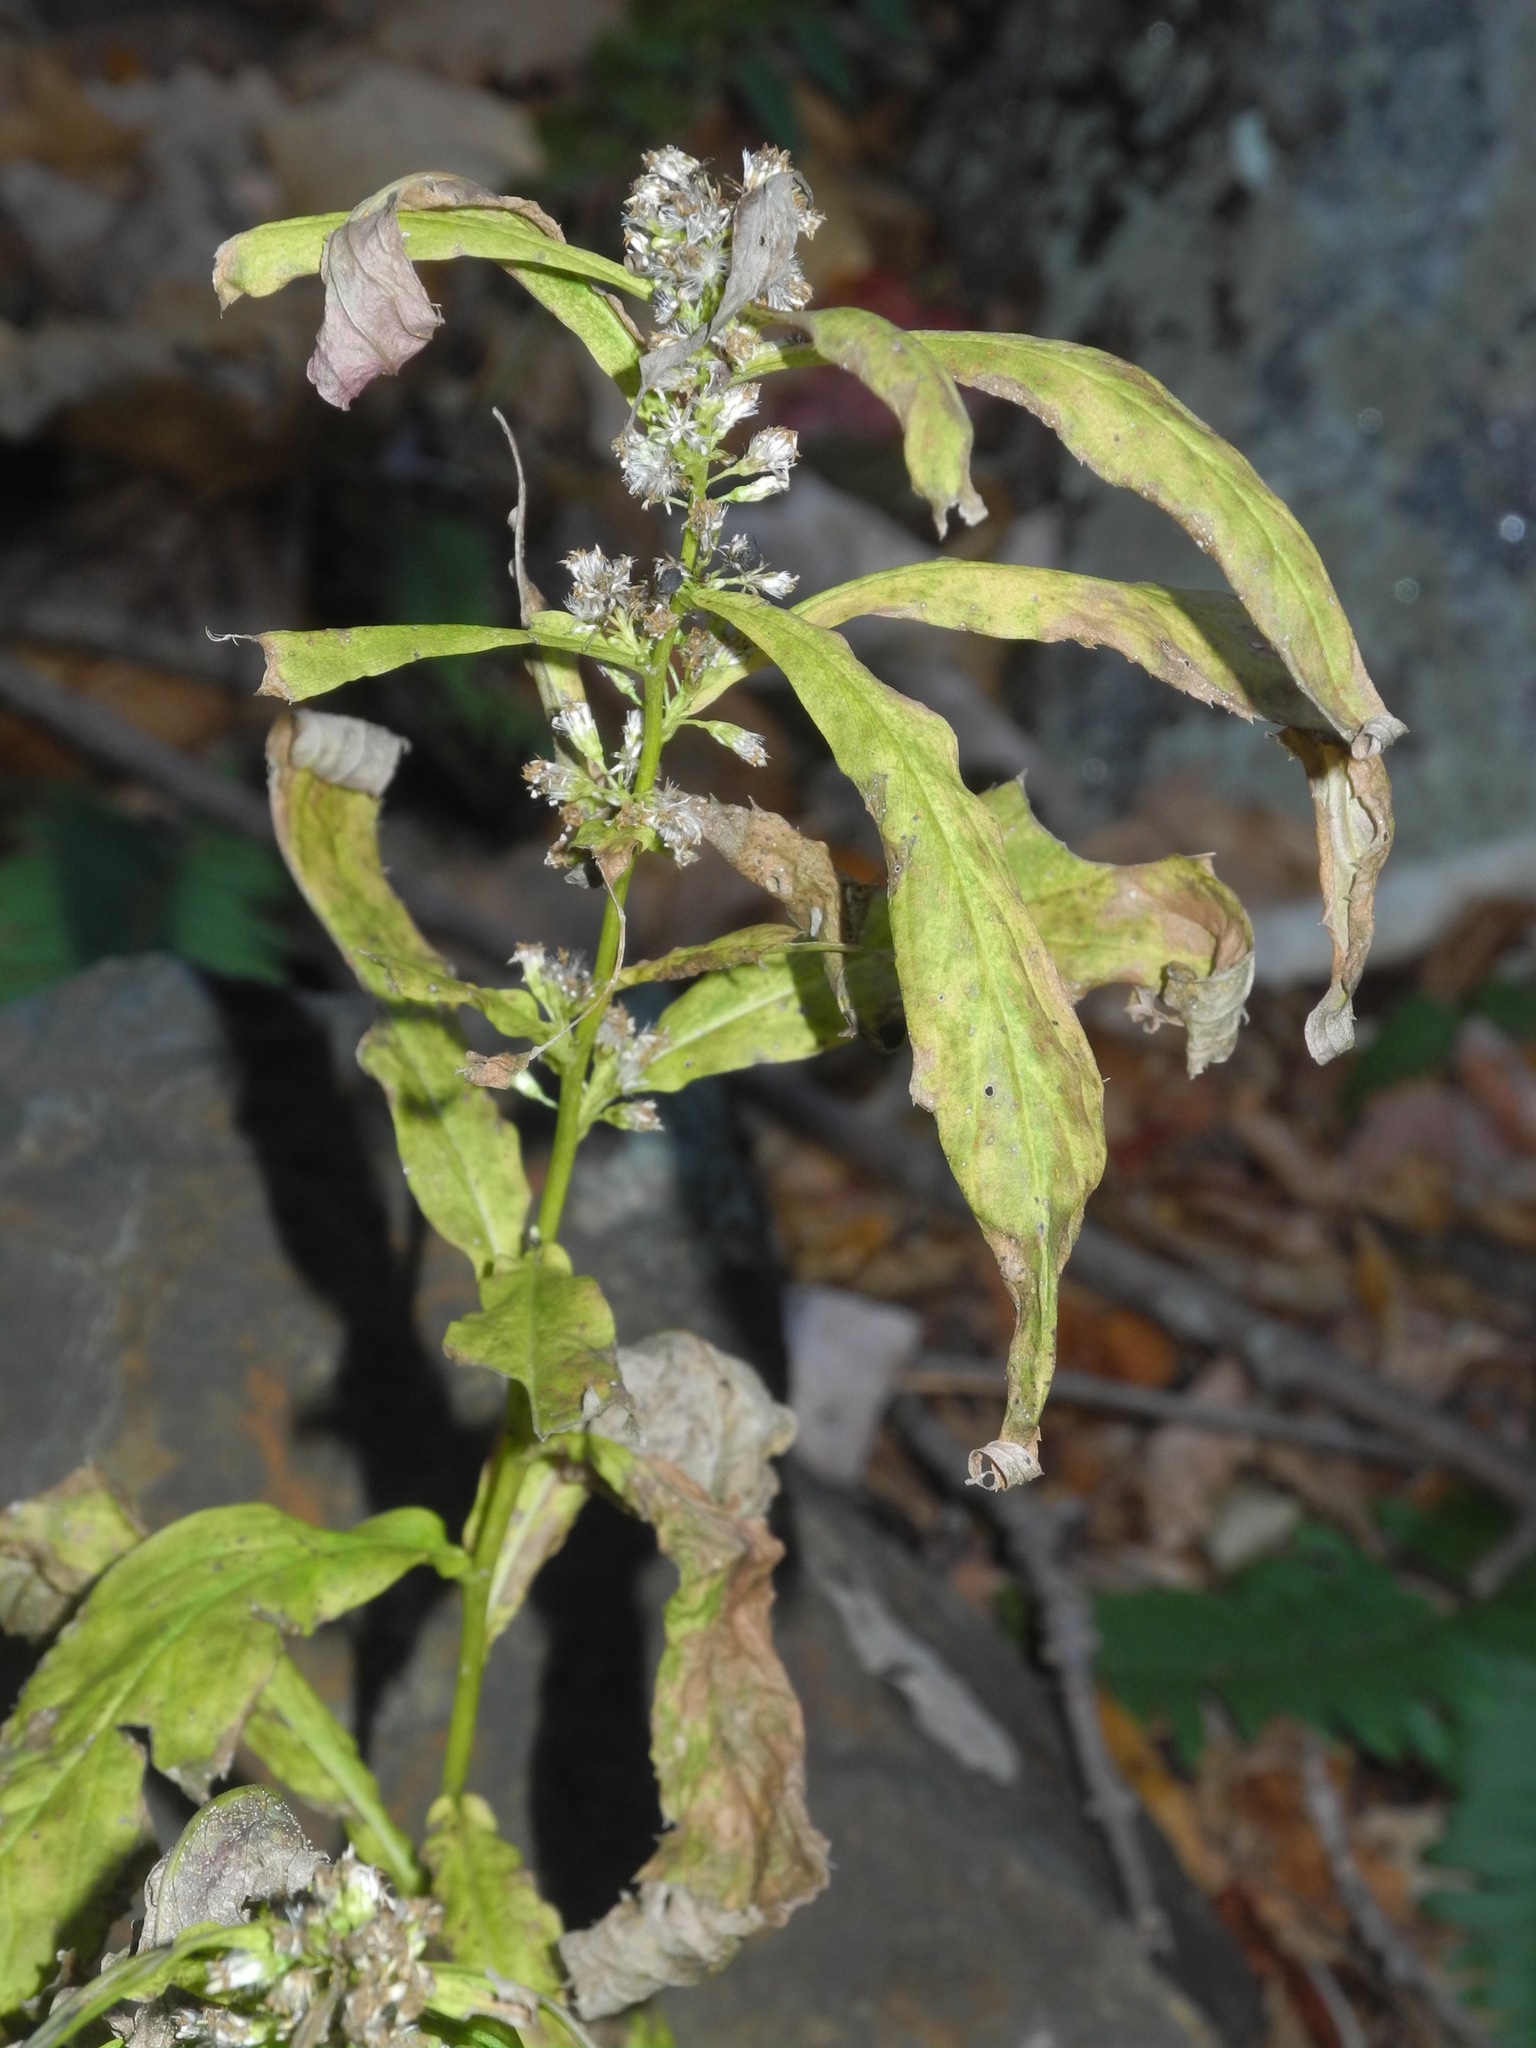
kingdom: Plantae
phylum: Tracheophyta
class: Magnoliopsida
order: Asterales
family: Asteraceae
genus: Solidago
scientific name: Solidago curtisii
